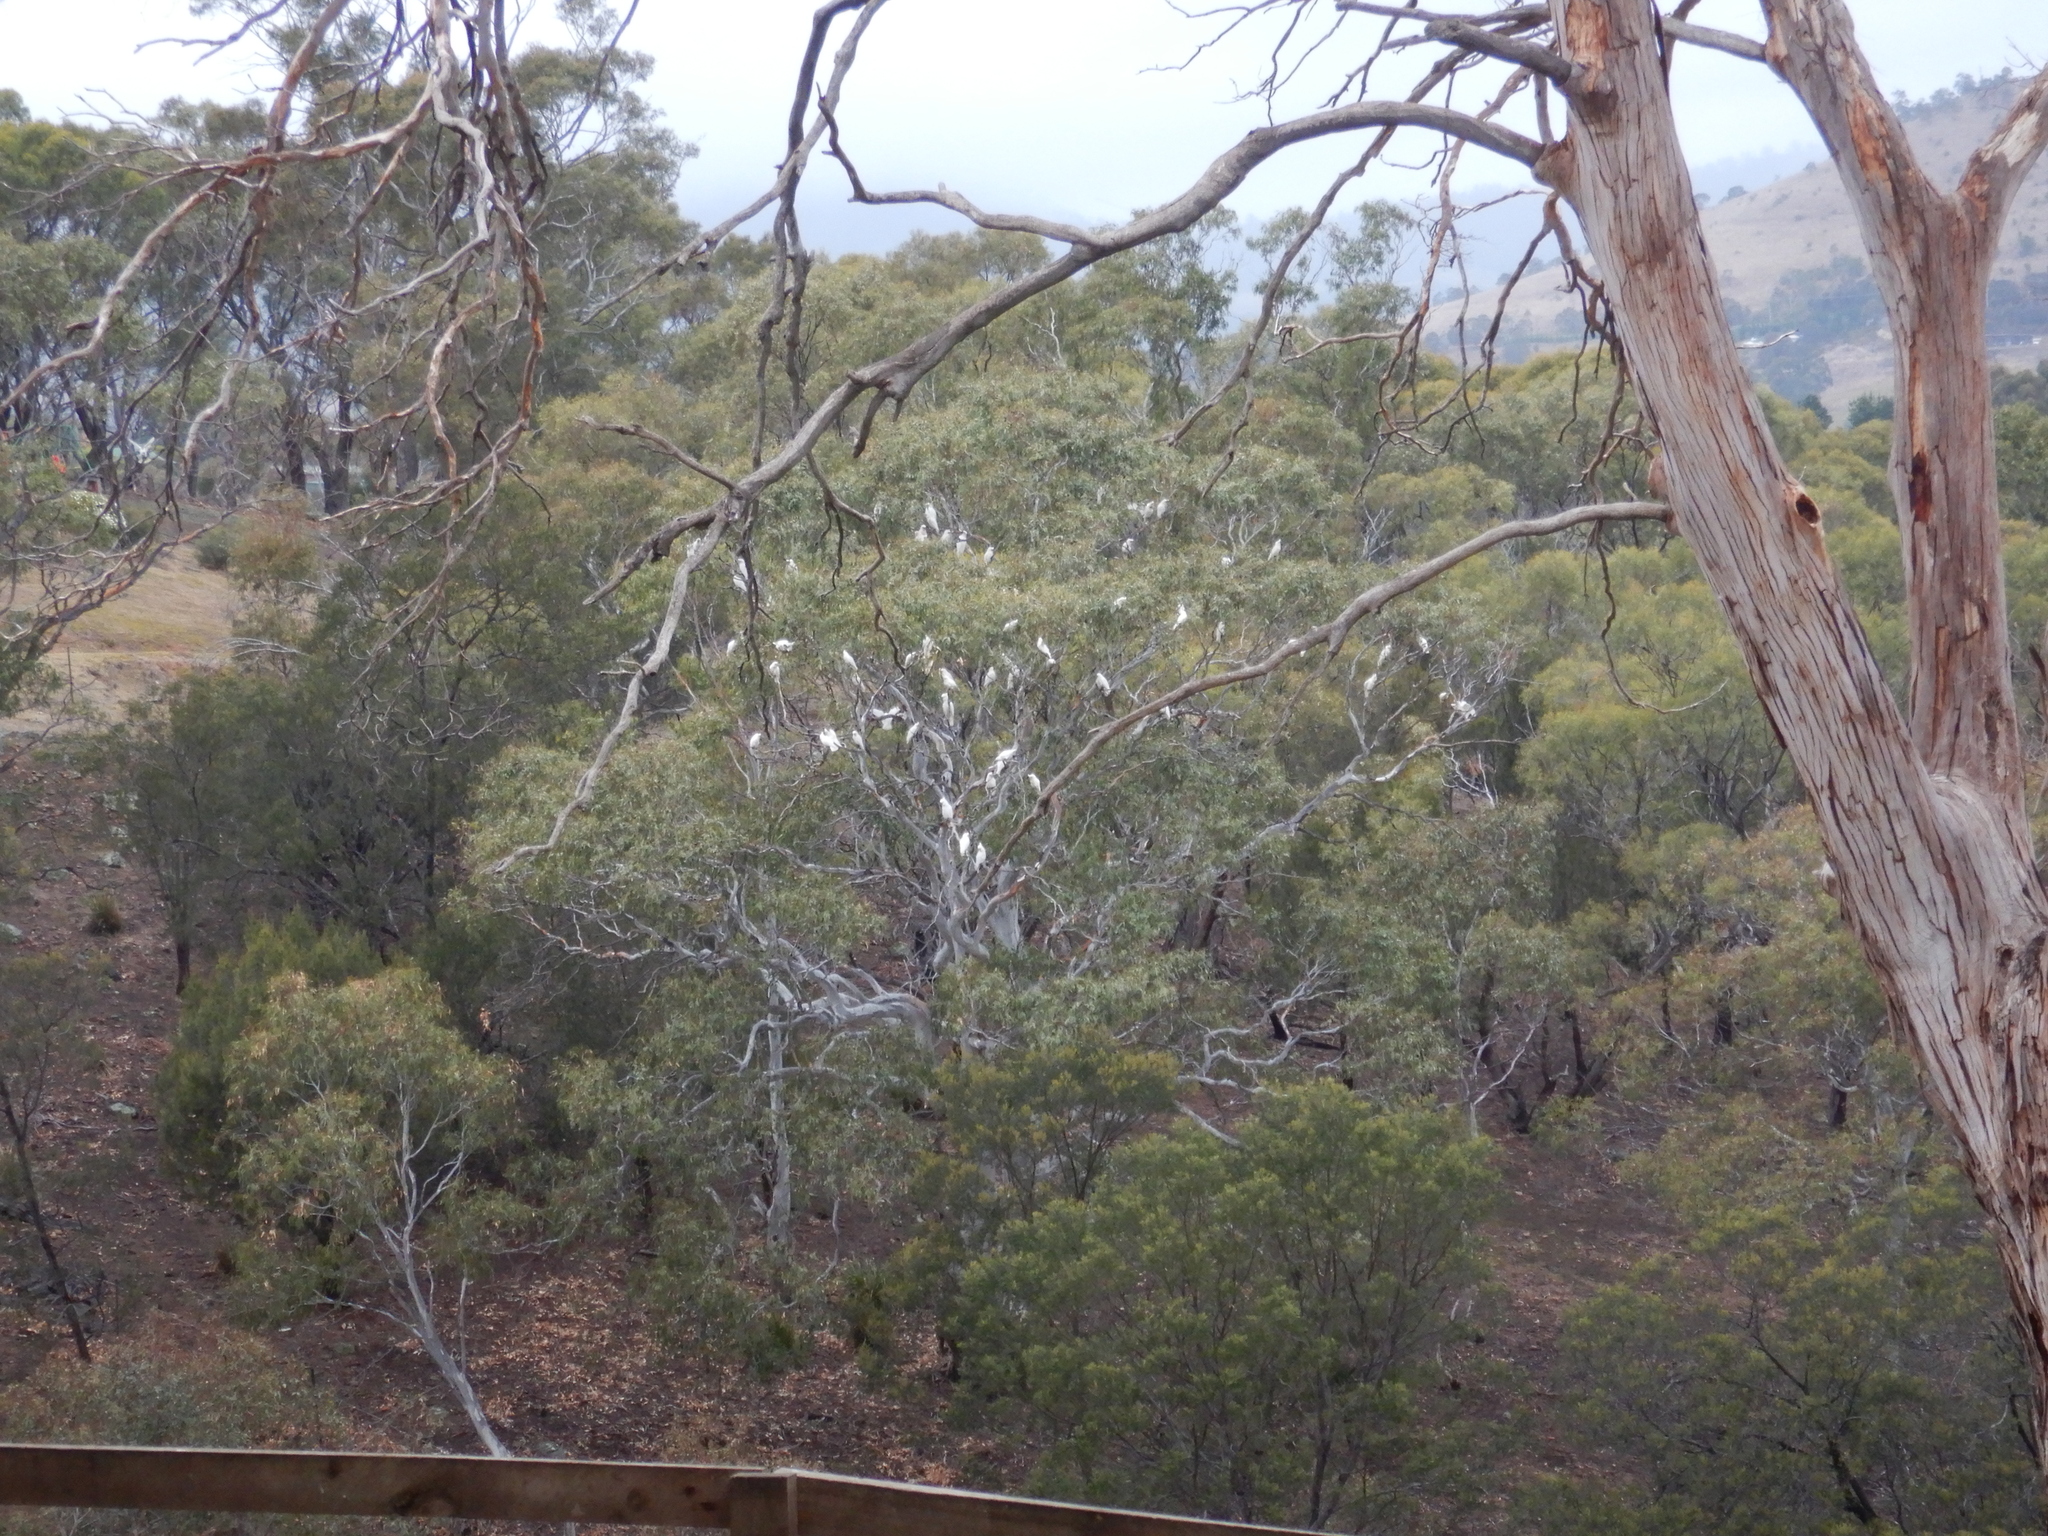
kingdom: Animalia
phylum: Chordata
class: Aves
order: Psittaciformes
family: Psittacidae
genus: Cacatua
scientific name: Cacatua galerita
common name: Sulphur-crested cockatoo
